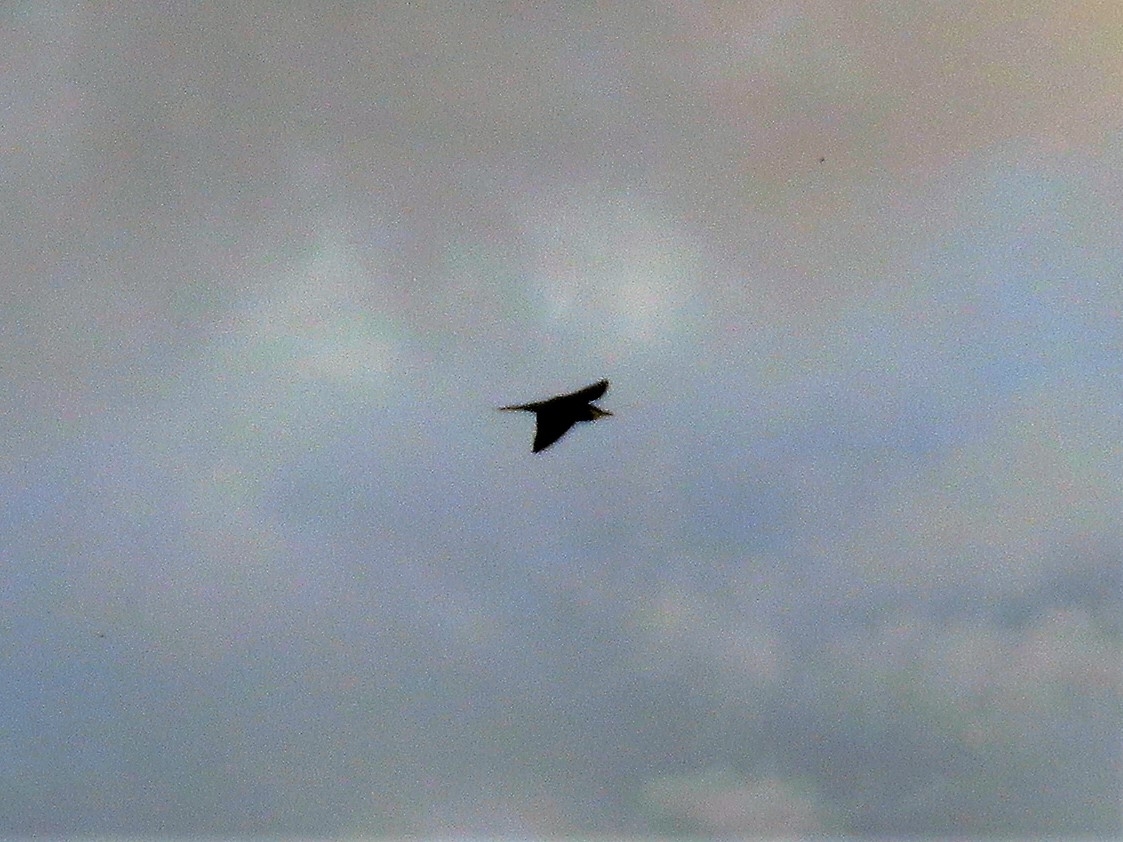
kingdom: Animalia
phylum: Chordata
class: Aves
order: Coraciiformes
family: Meropidae
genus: Merops
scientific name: Merops apiaster
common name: European bee-eater
